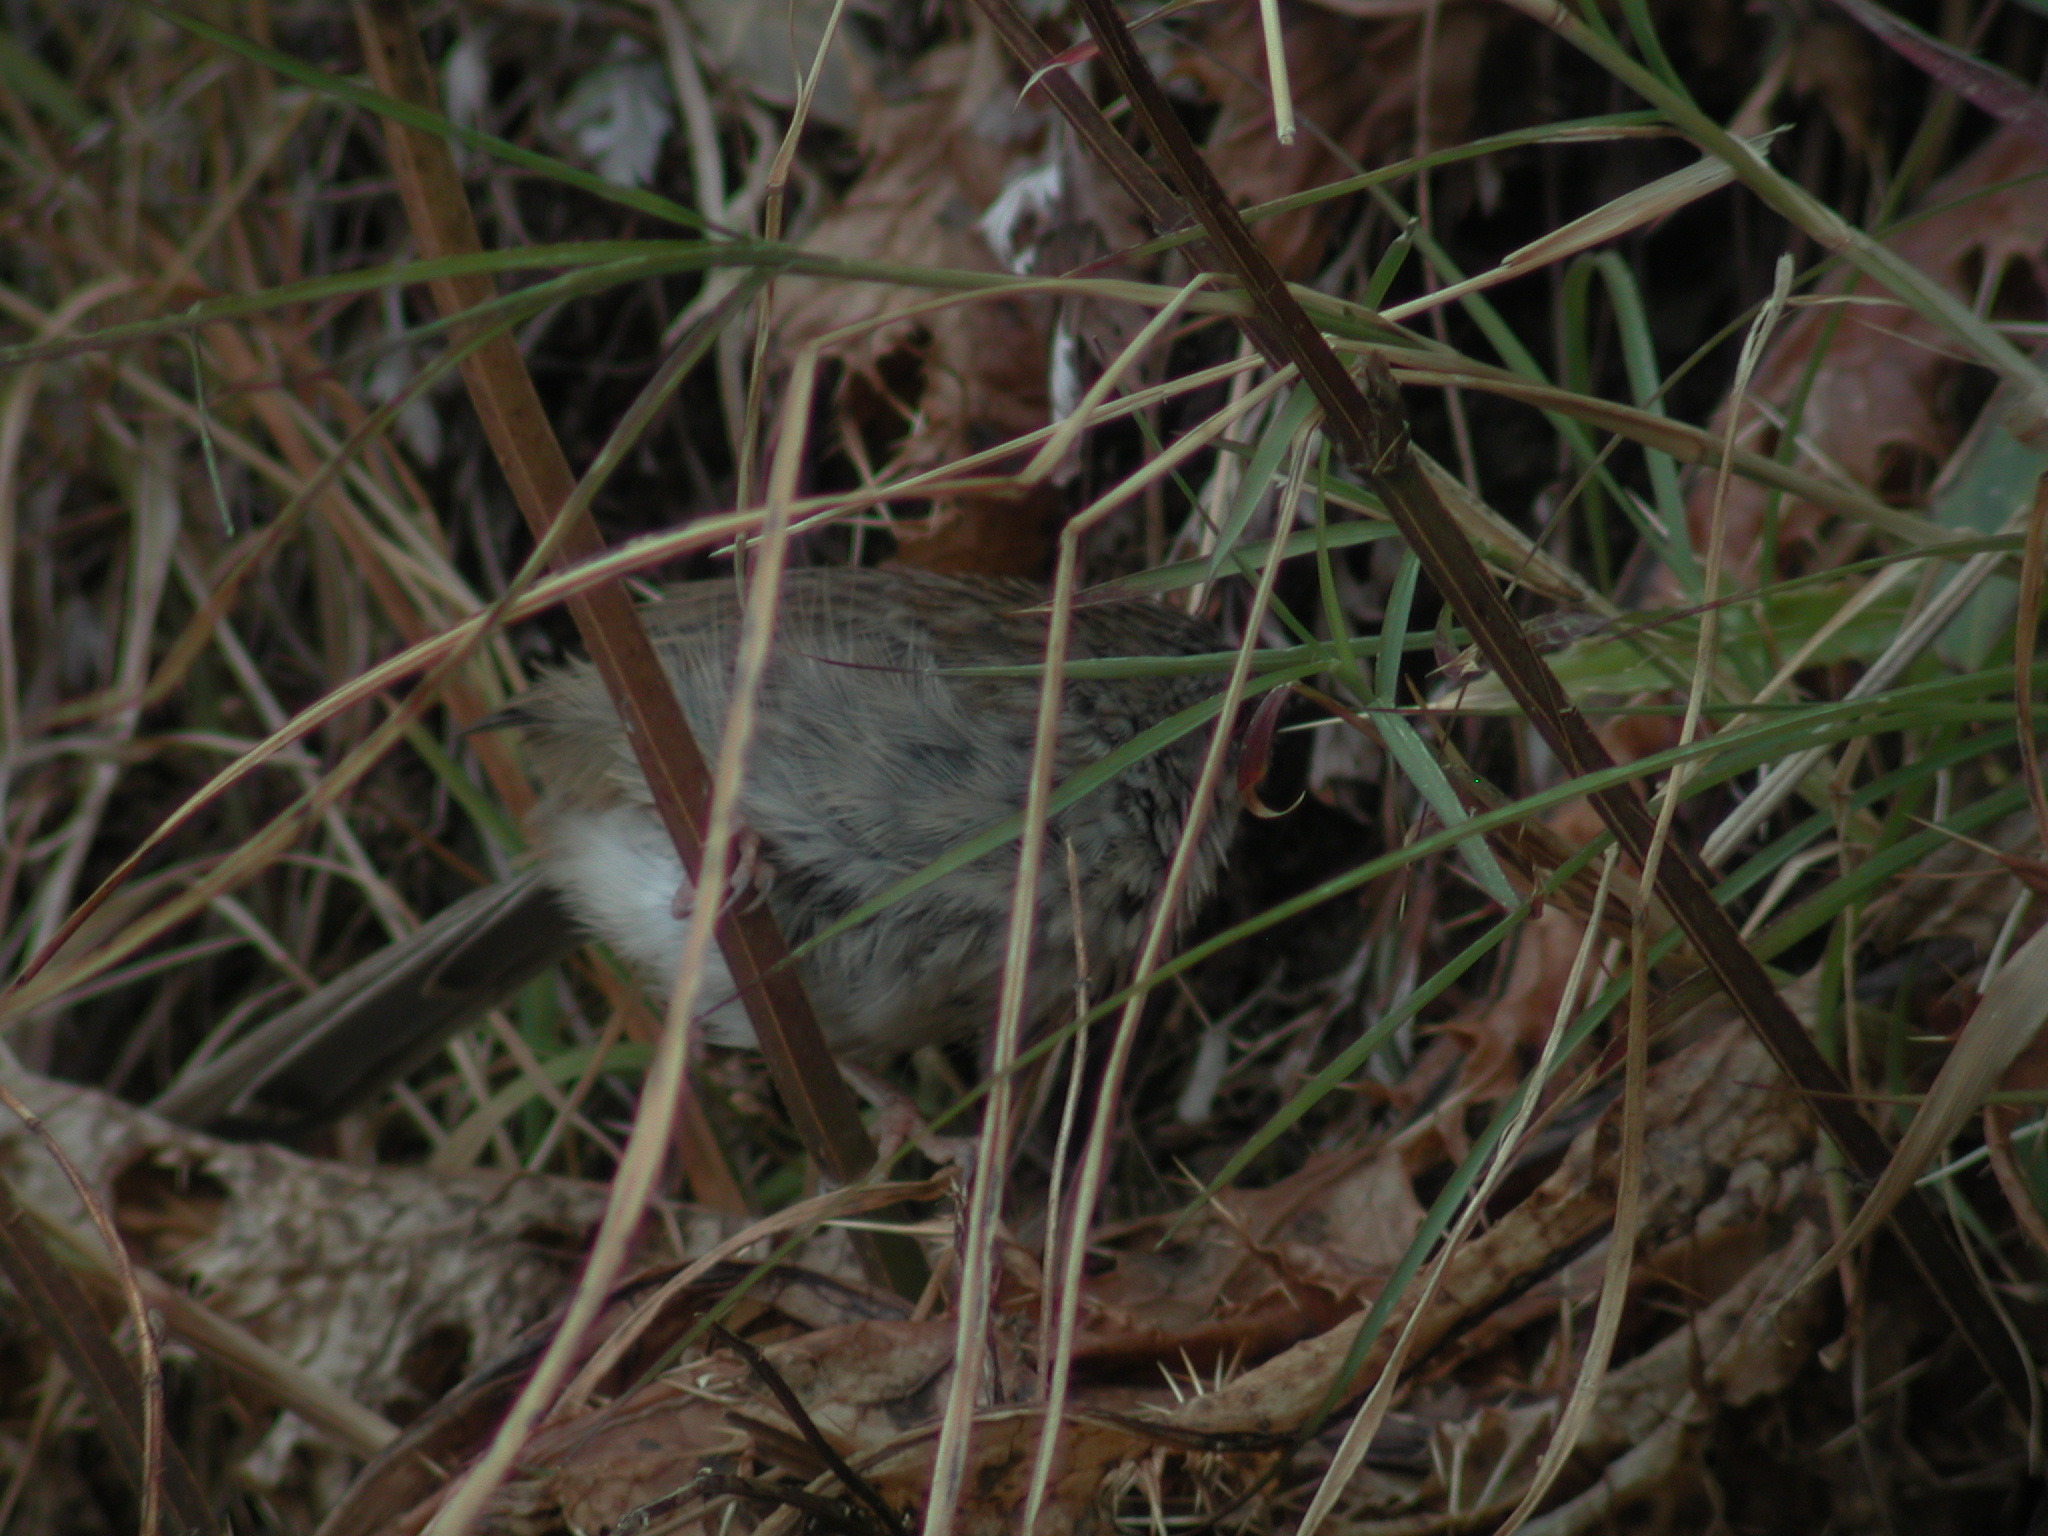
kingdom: Animalia
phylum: Chordata
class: Aves
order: Passeriformes
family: Cisticolidae
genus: Prinia
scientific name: Prinia crinigera
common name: Striated prinia
